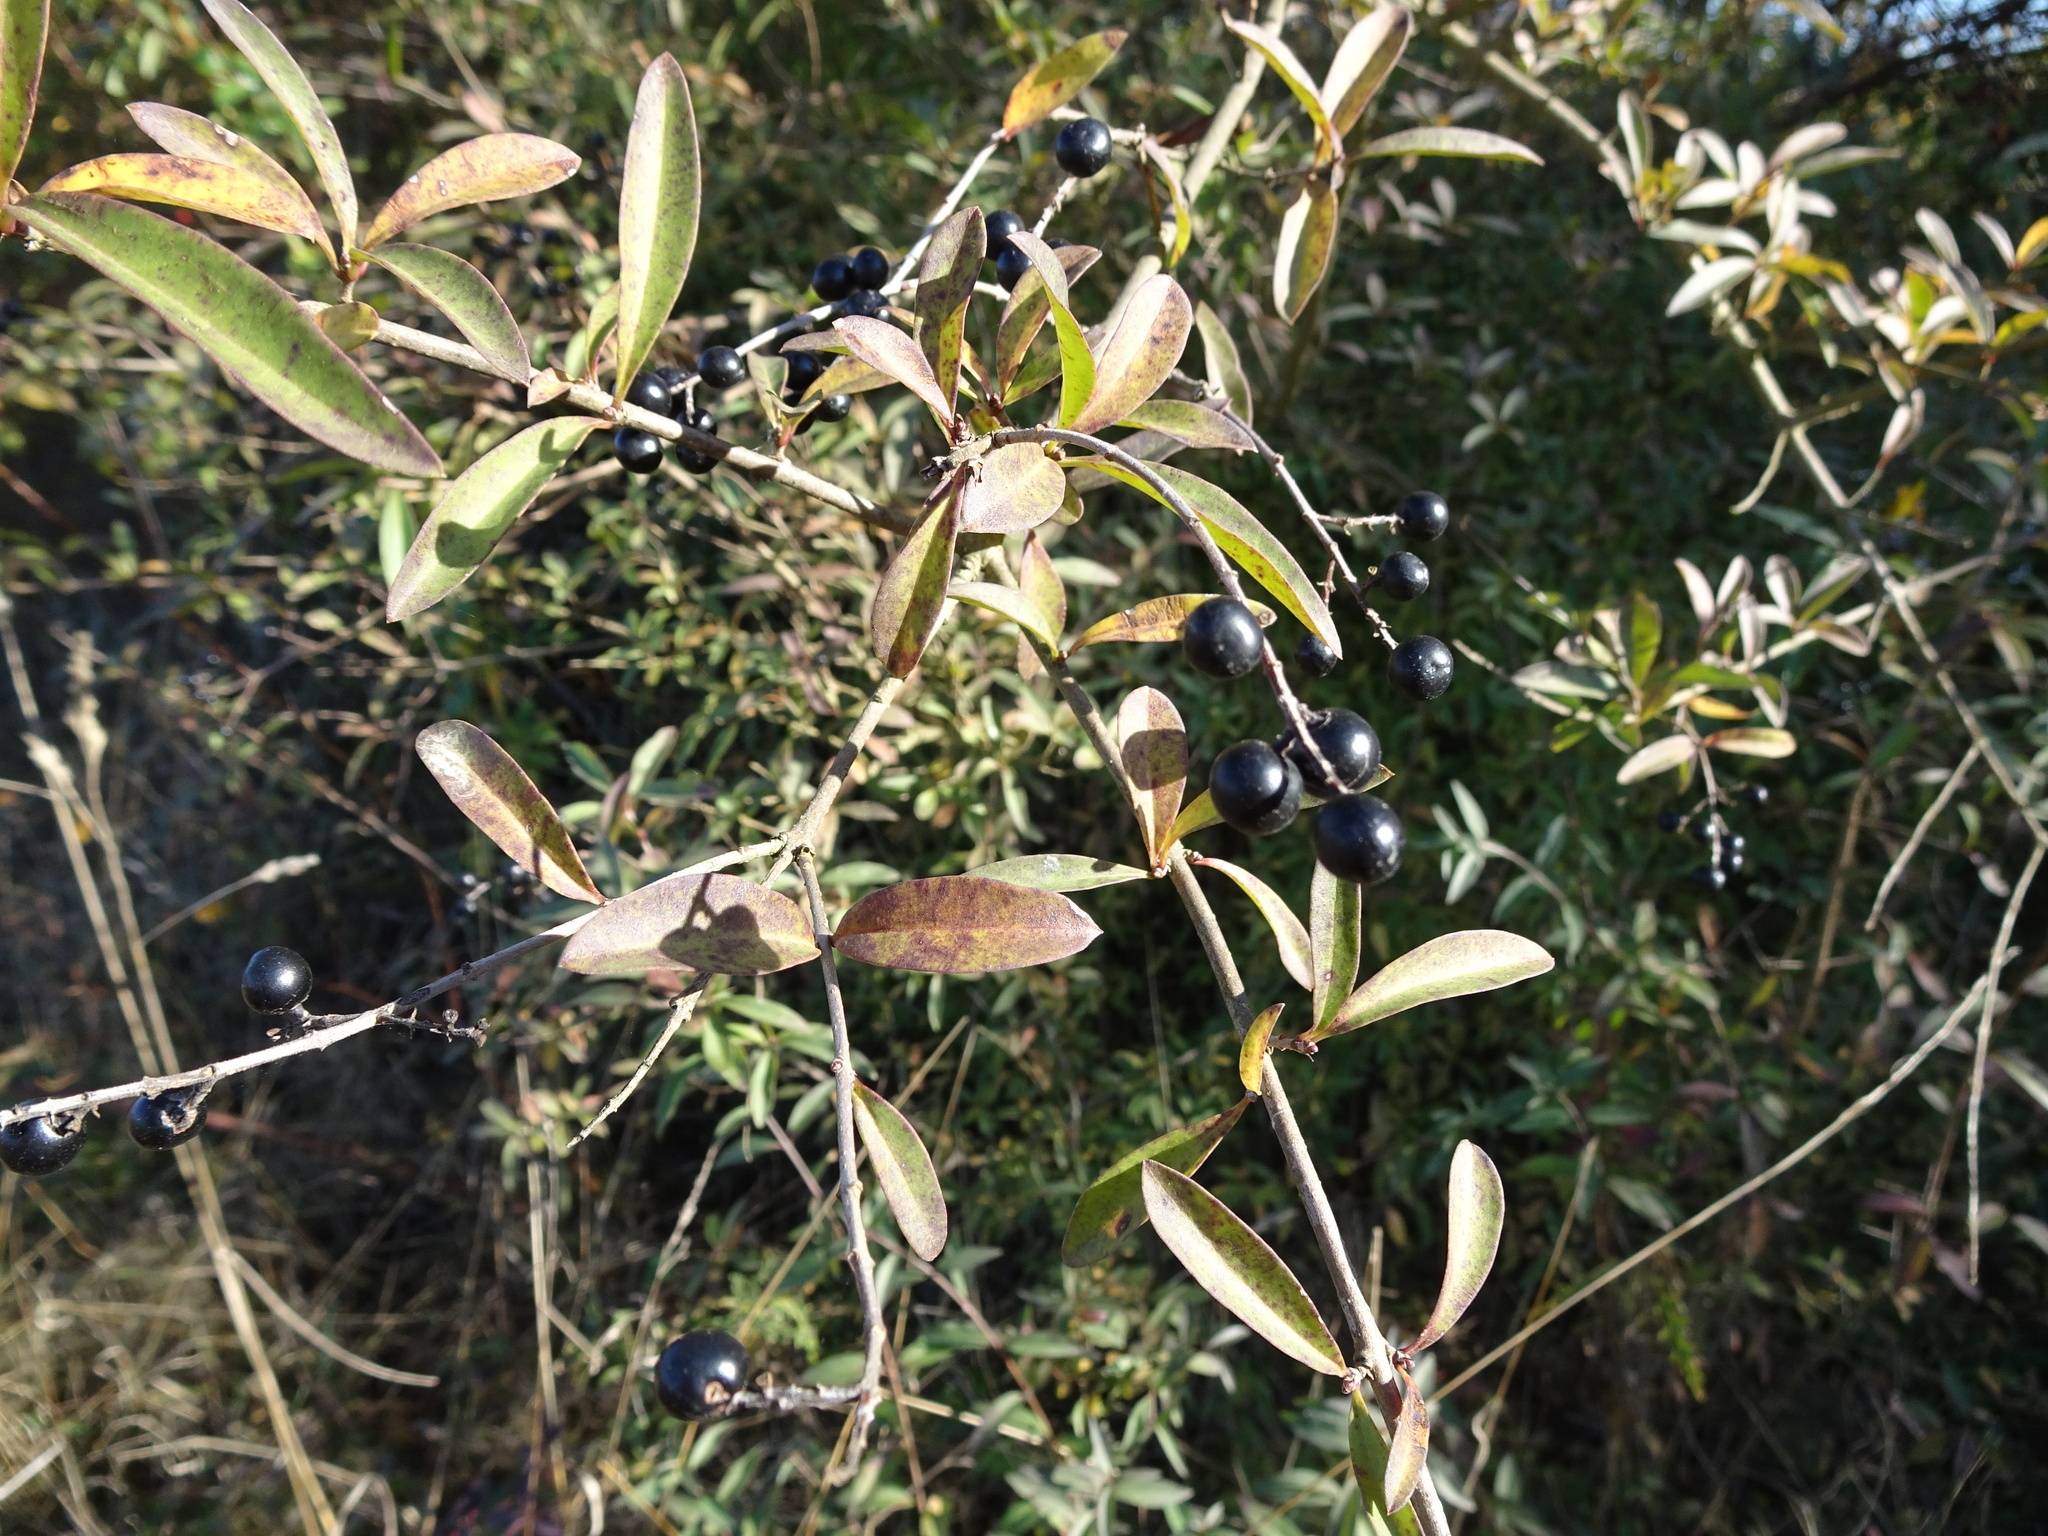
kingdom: Plantae
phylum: Tracheophyta
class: Magnoliopsida
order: Lamiales
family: Oleaceae
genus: Ligustrum
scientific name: Ligustrum vulgare
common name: Wild privet
